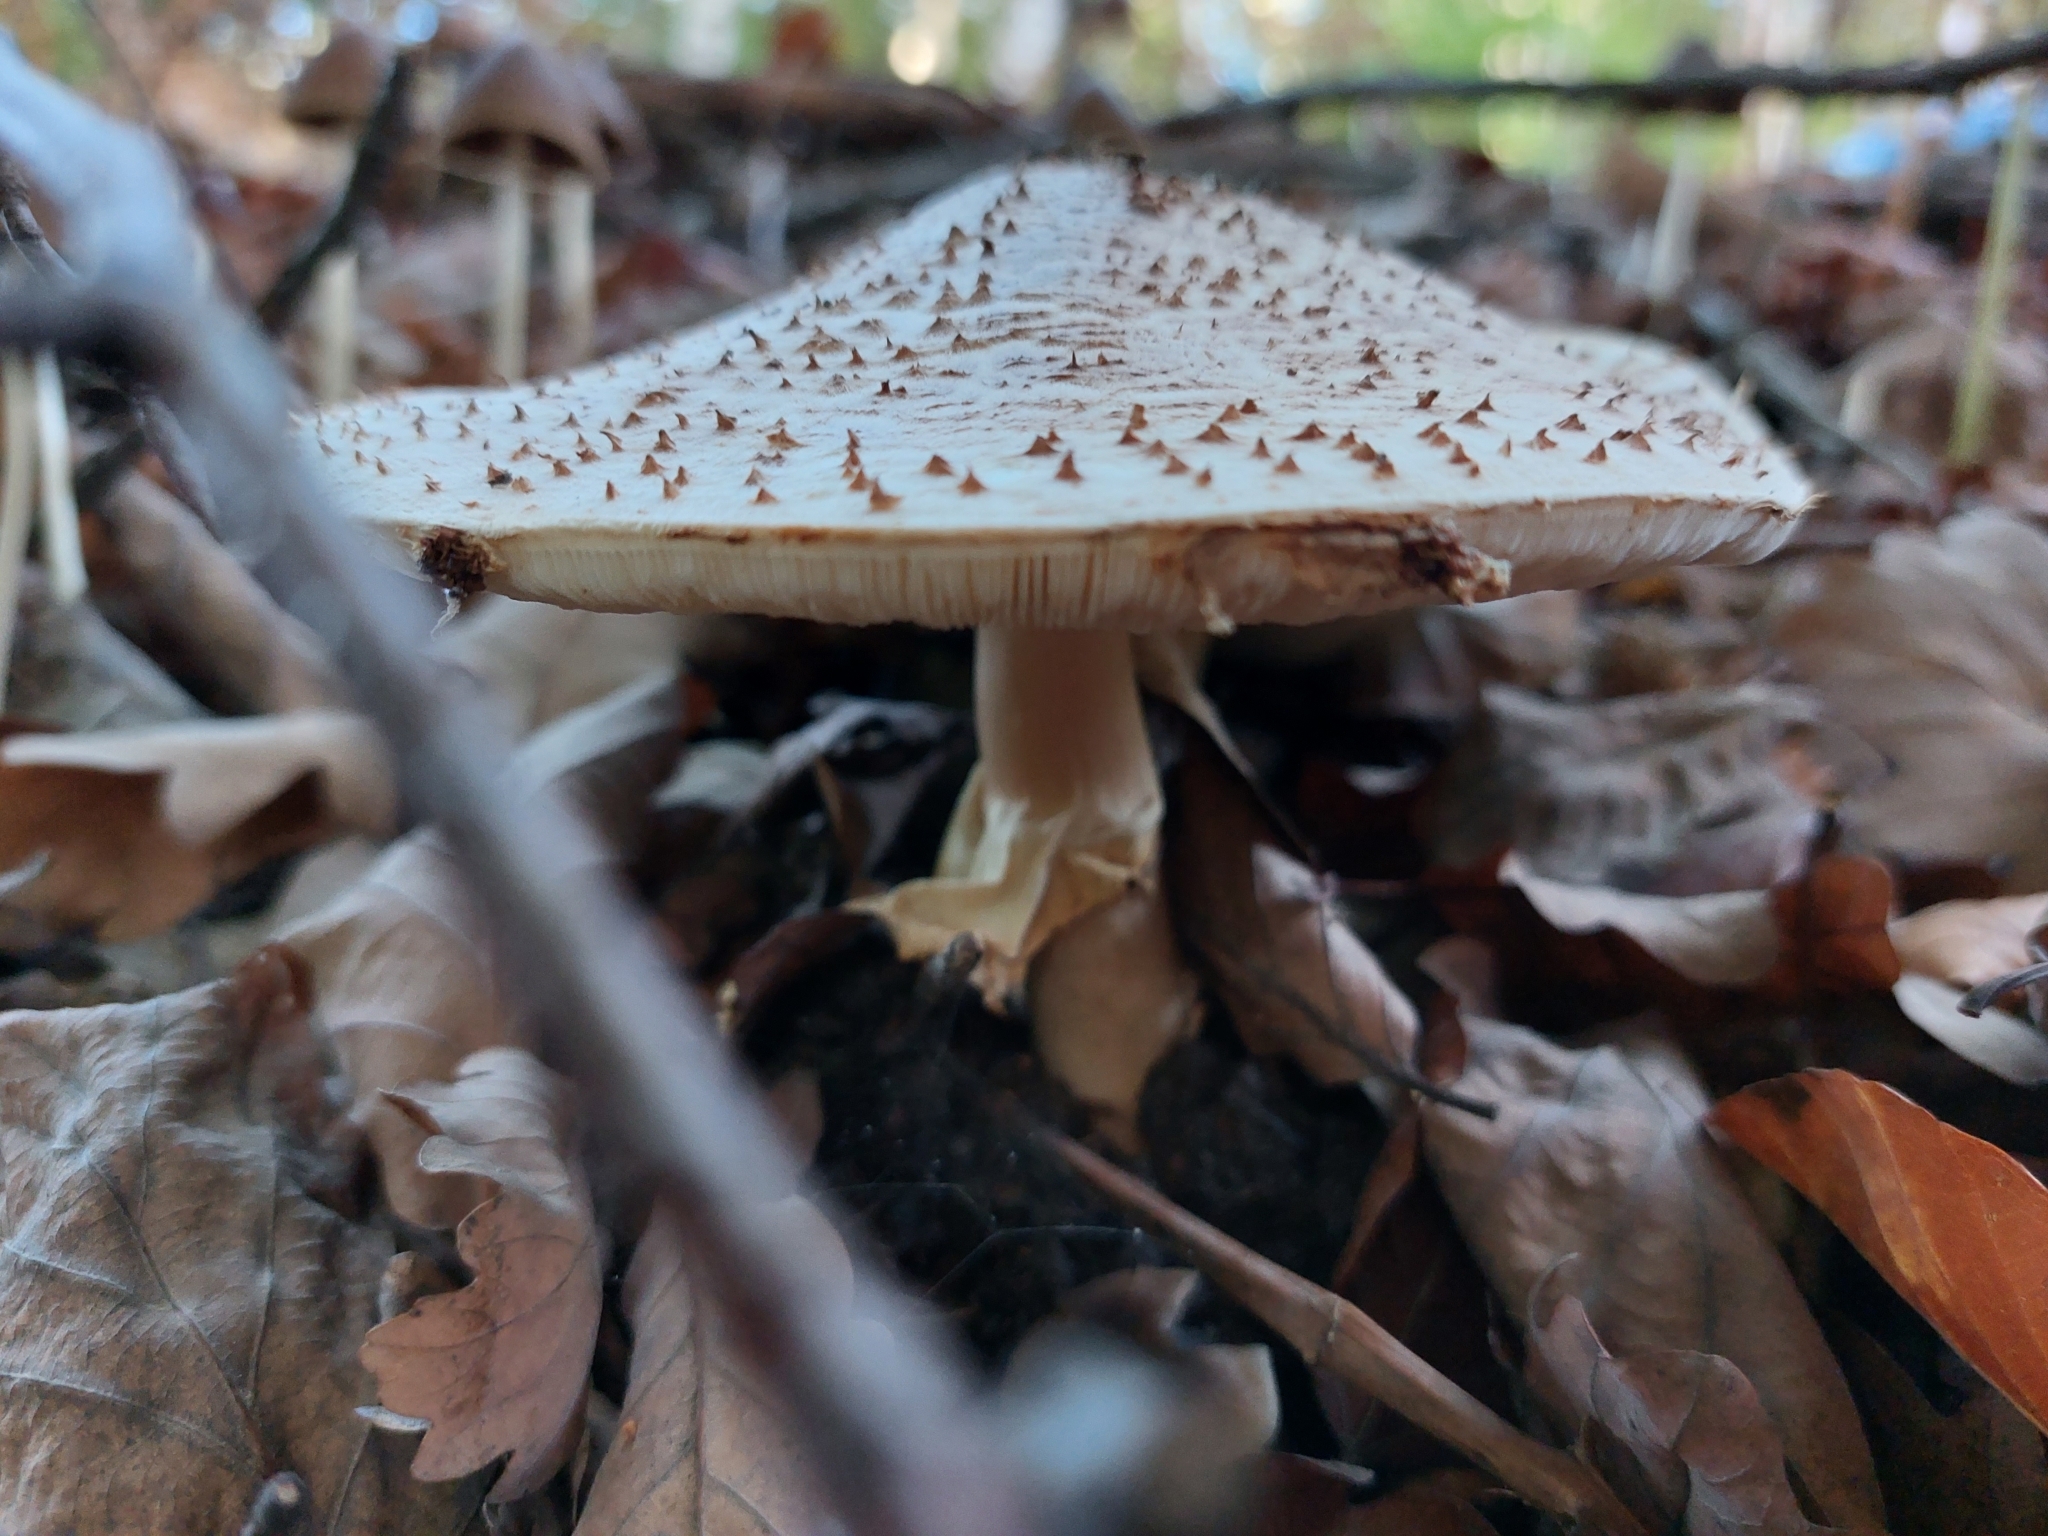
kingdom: Fungi
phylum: Basidiomycota
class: Agaricomycetes
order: Agaricales
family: Agaricaceae
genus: Echinoderma
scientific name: Echinoderma asperum
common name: Freckled dapperling
